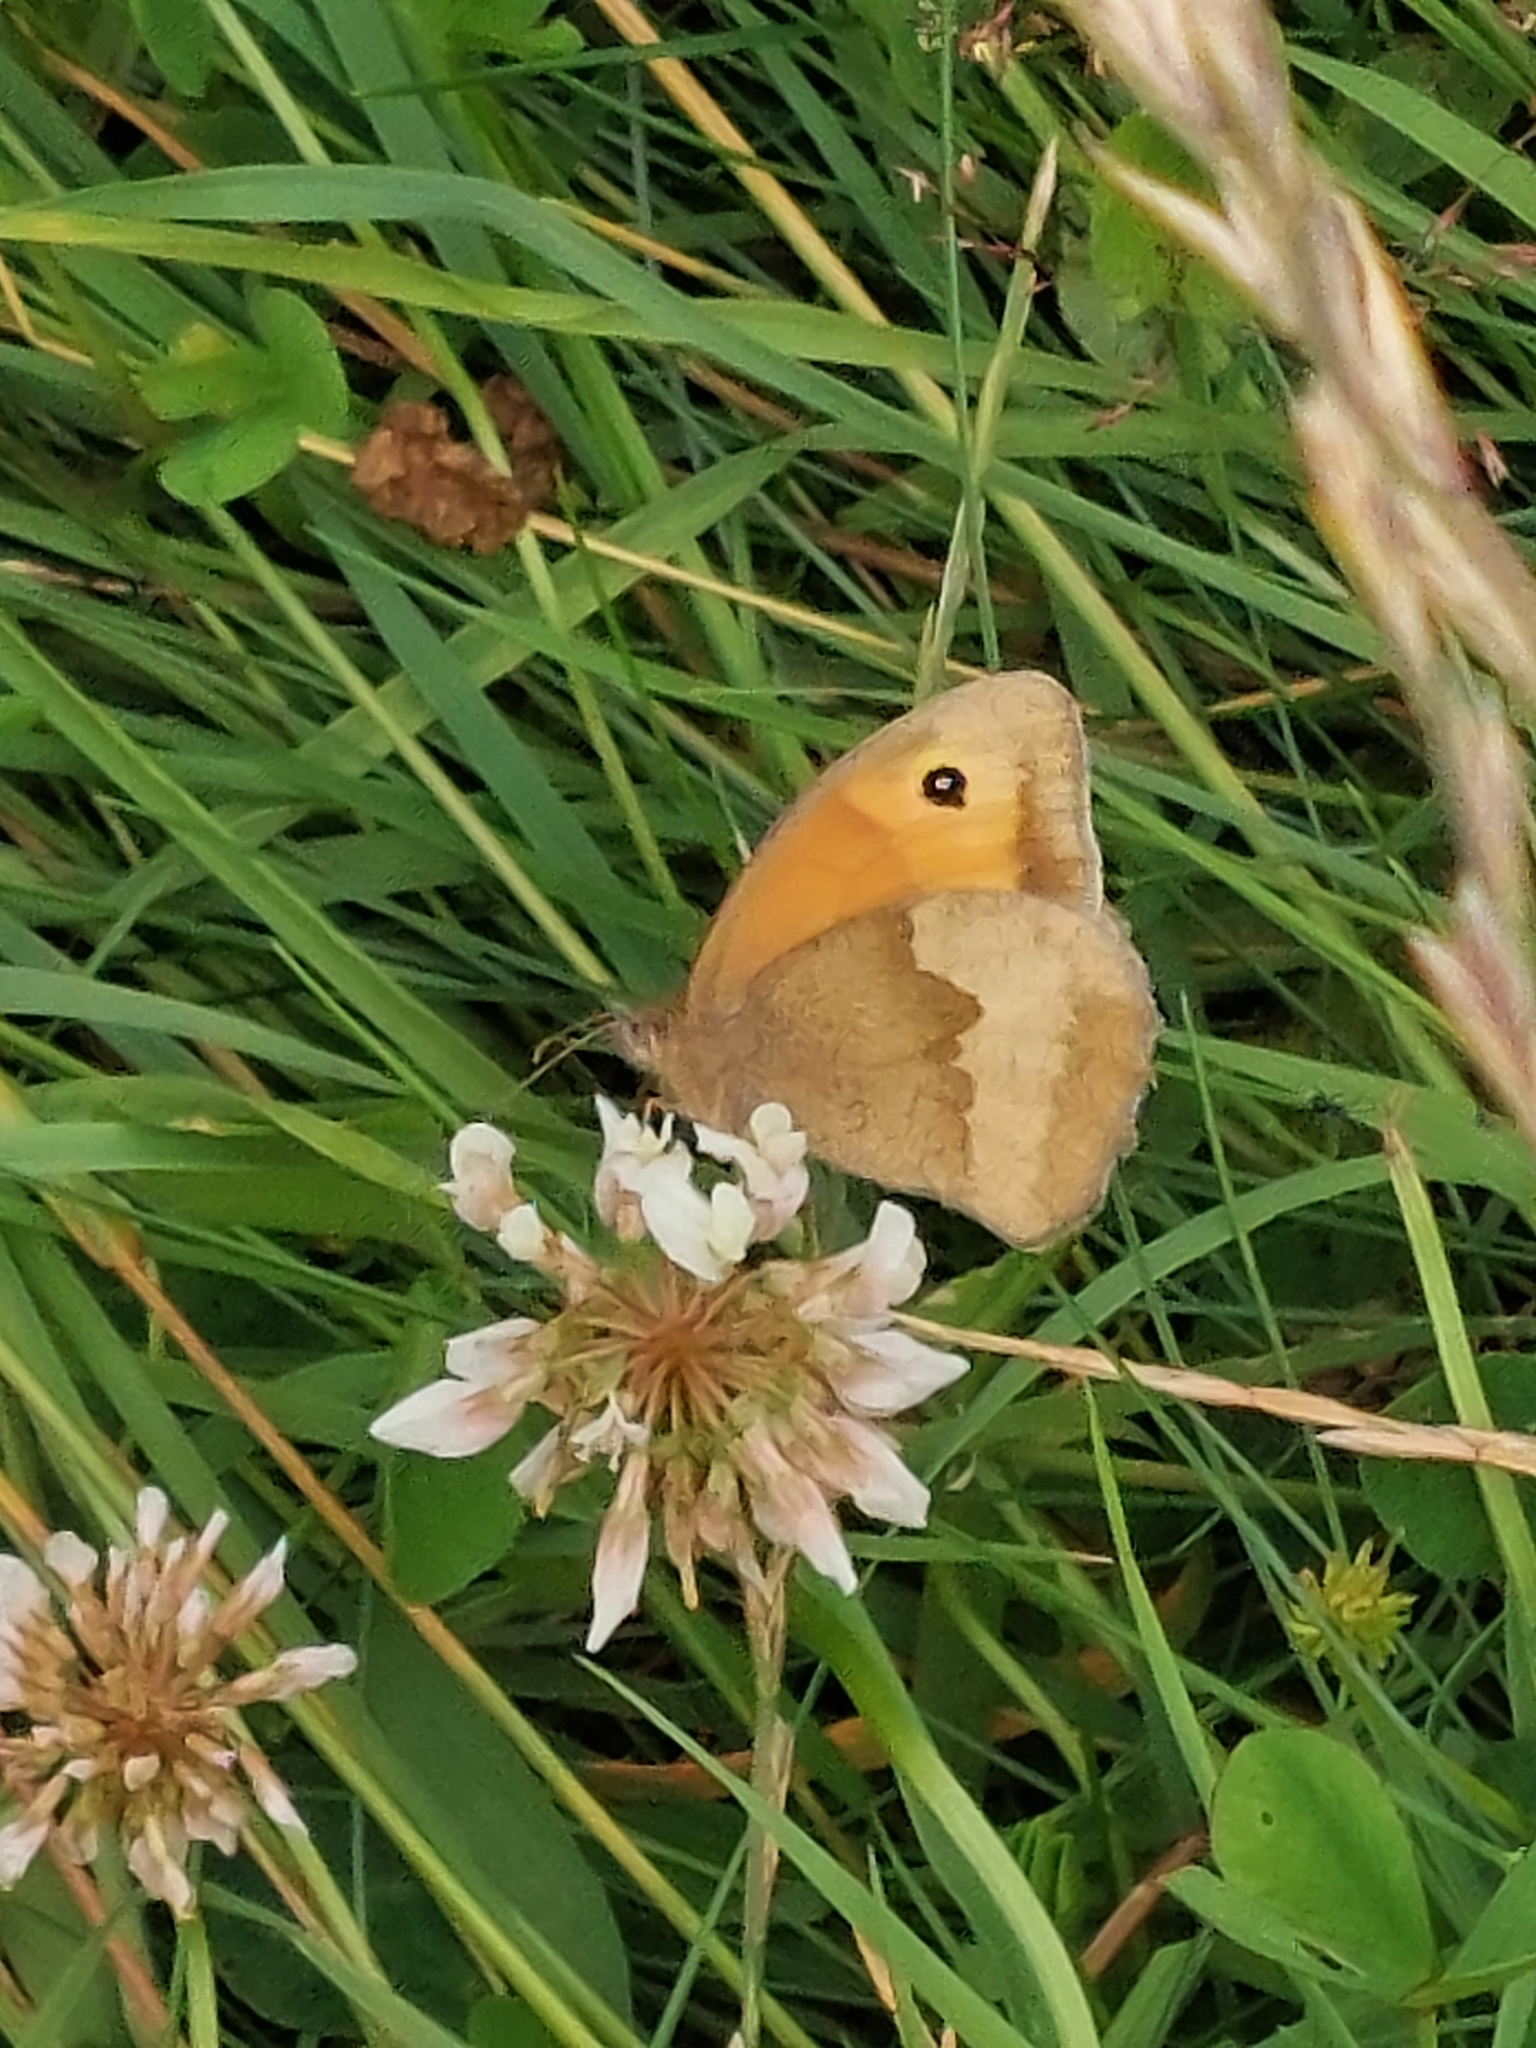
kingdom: Animalia
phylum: Arthropoda
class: Insecta
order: Lepidoptera
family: Nymphalidae
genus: Maniola
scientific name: Maniola jurtina
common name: Meadow brown
